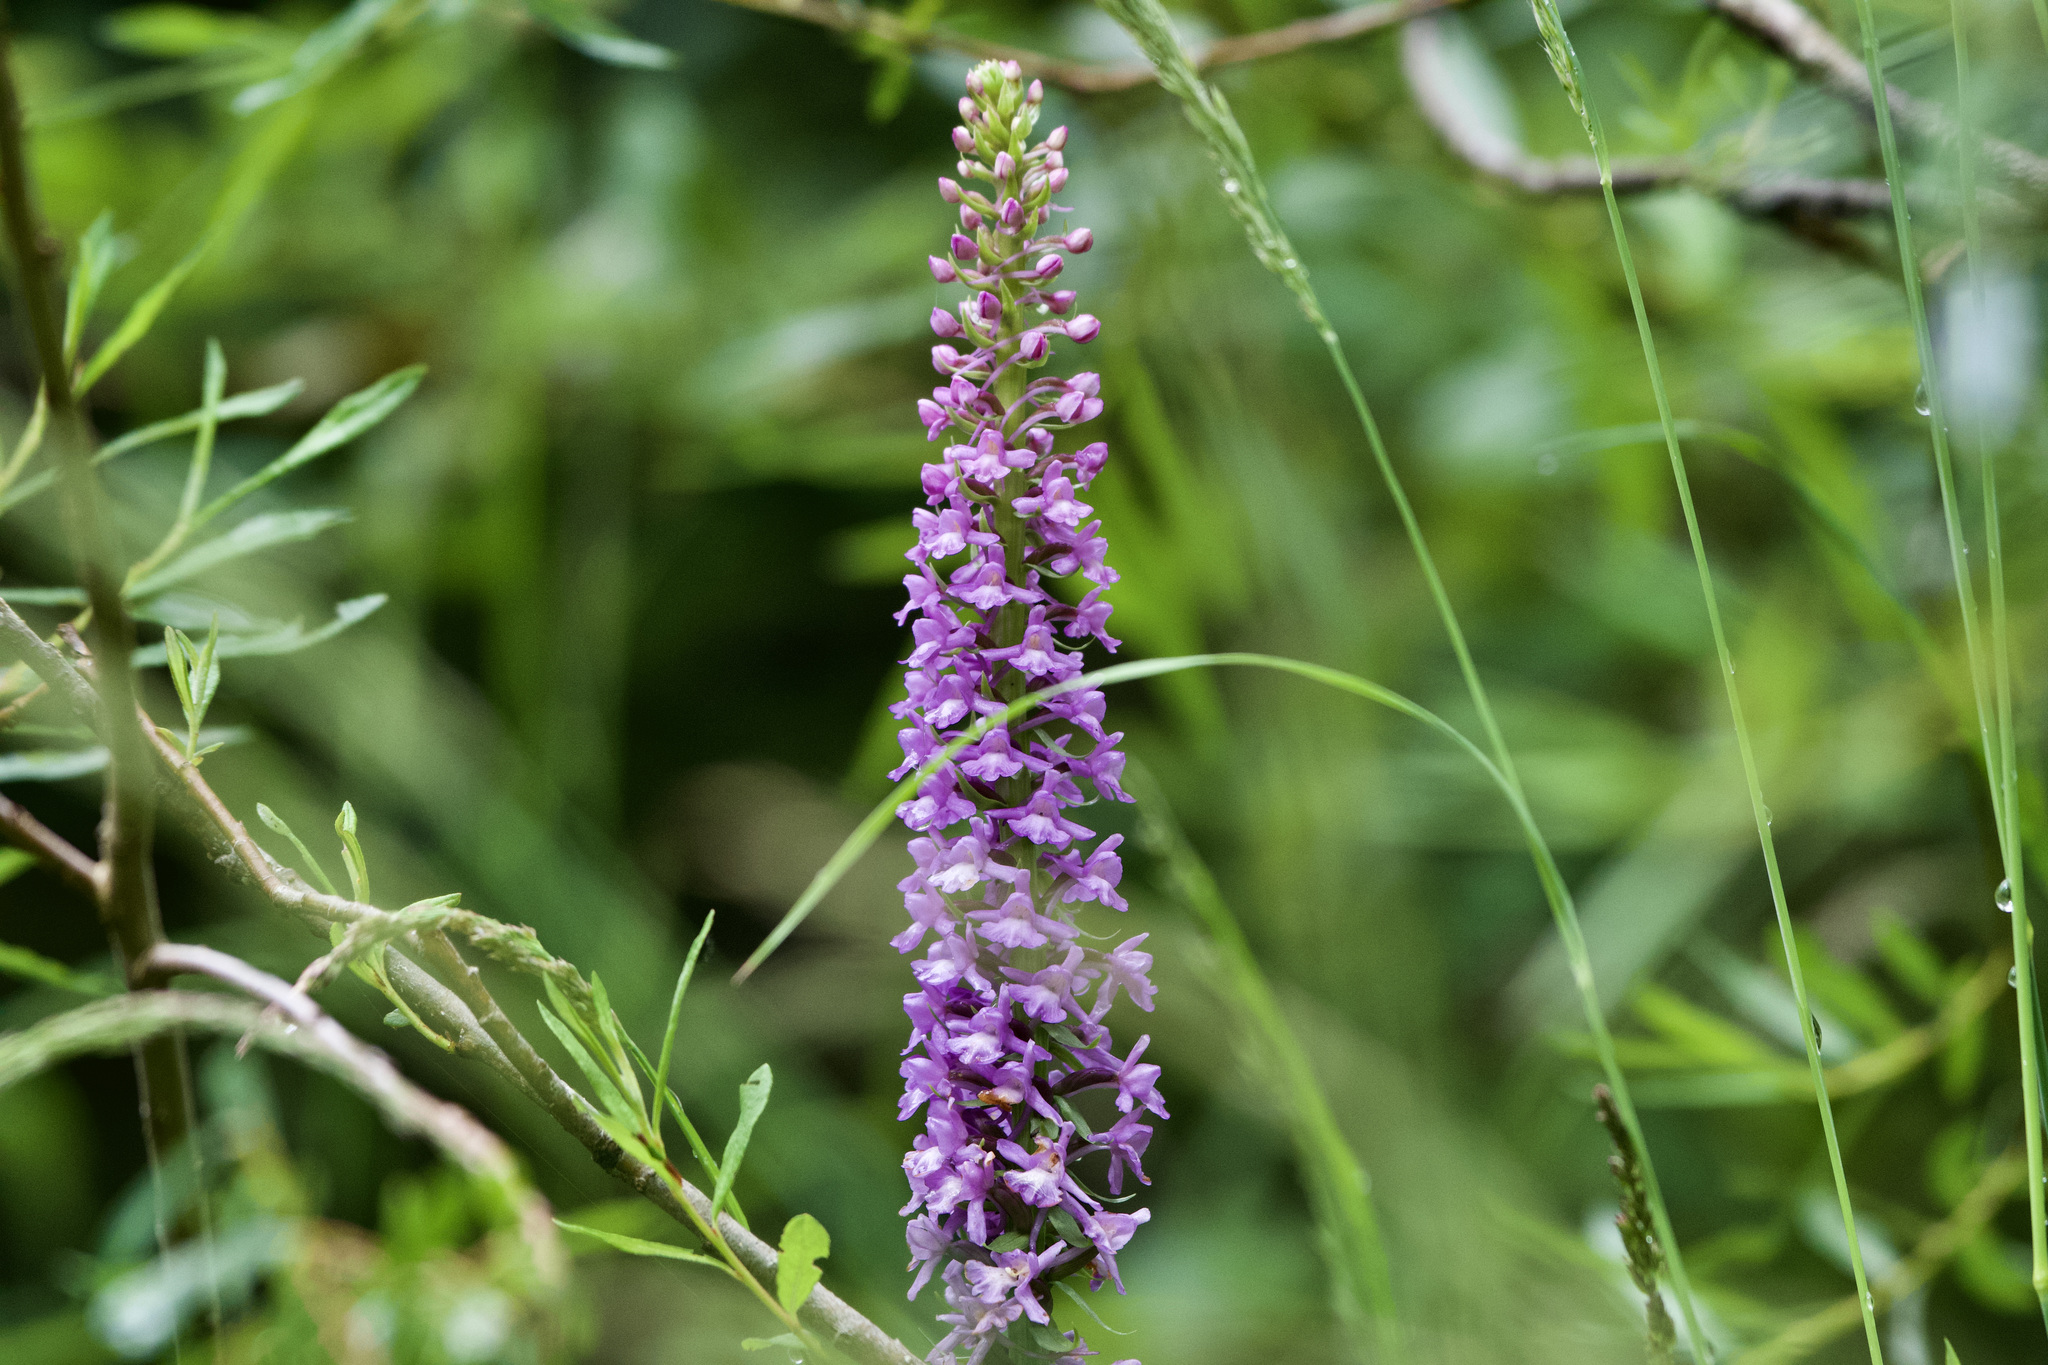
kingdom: Plantae
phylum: Tracheophyta
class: Liliopsida
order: Asparagales
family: Orchidaceae
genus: Gymnadenia
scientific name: Gymnadenia conopsea
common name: Fragrant orchid
